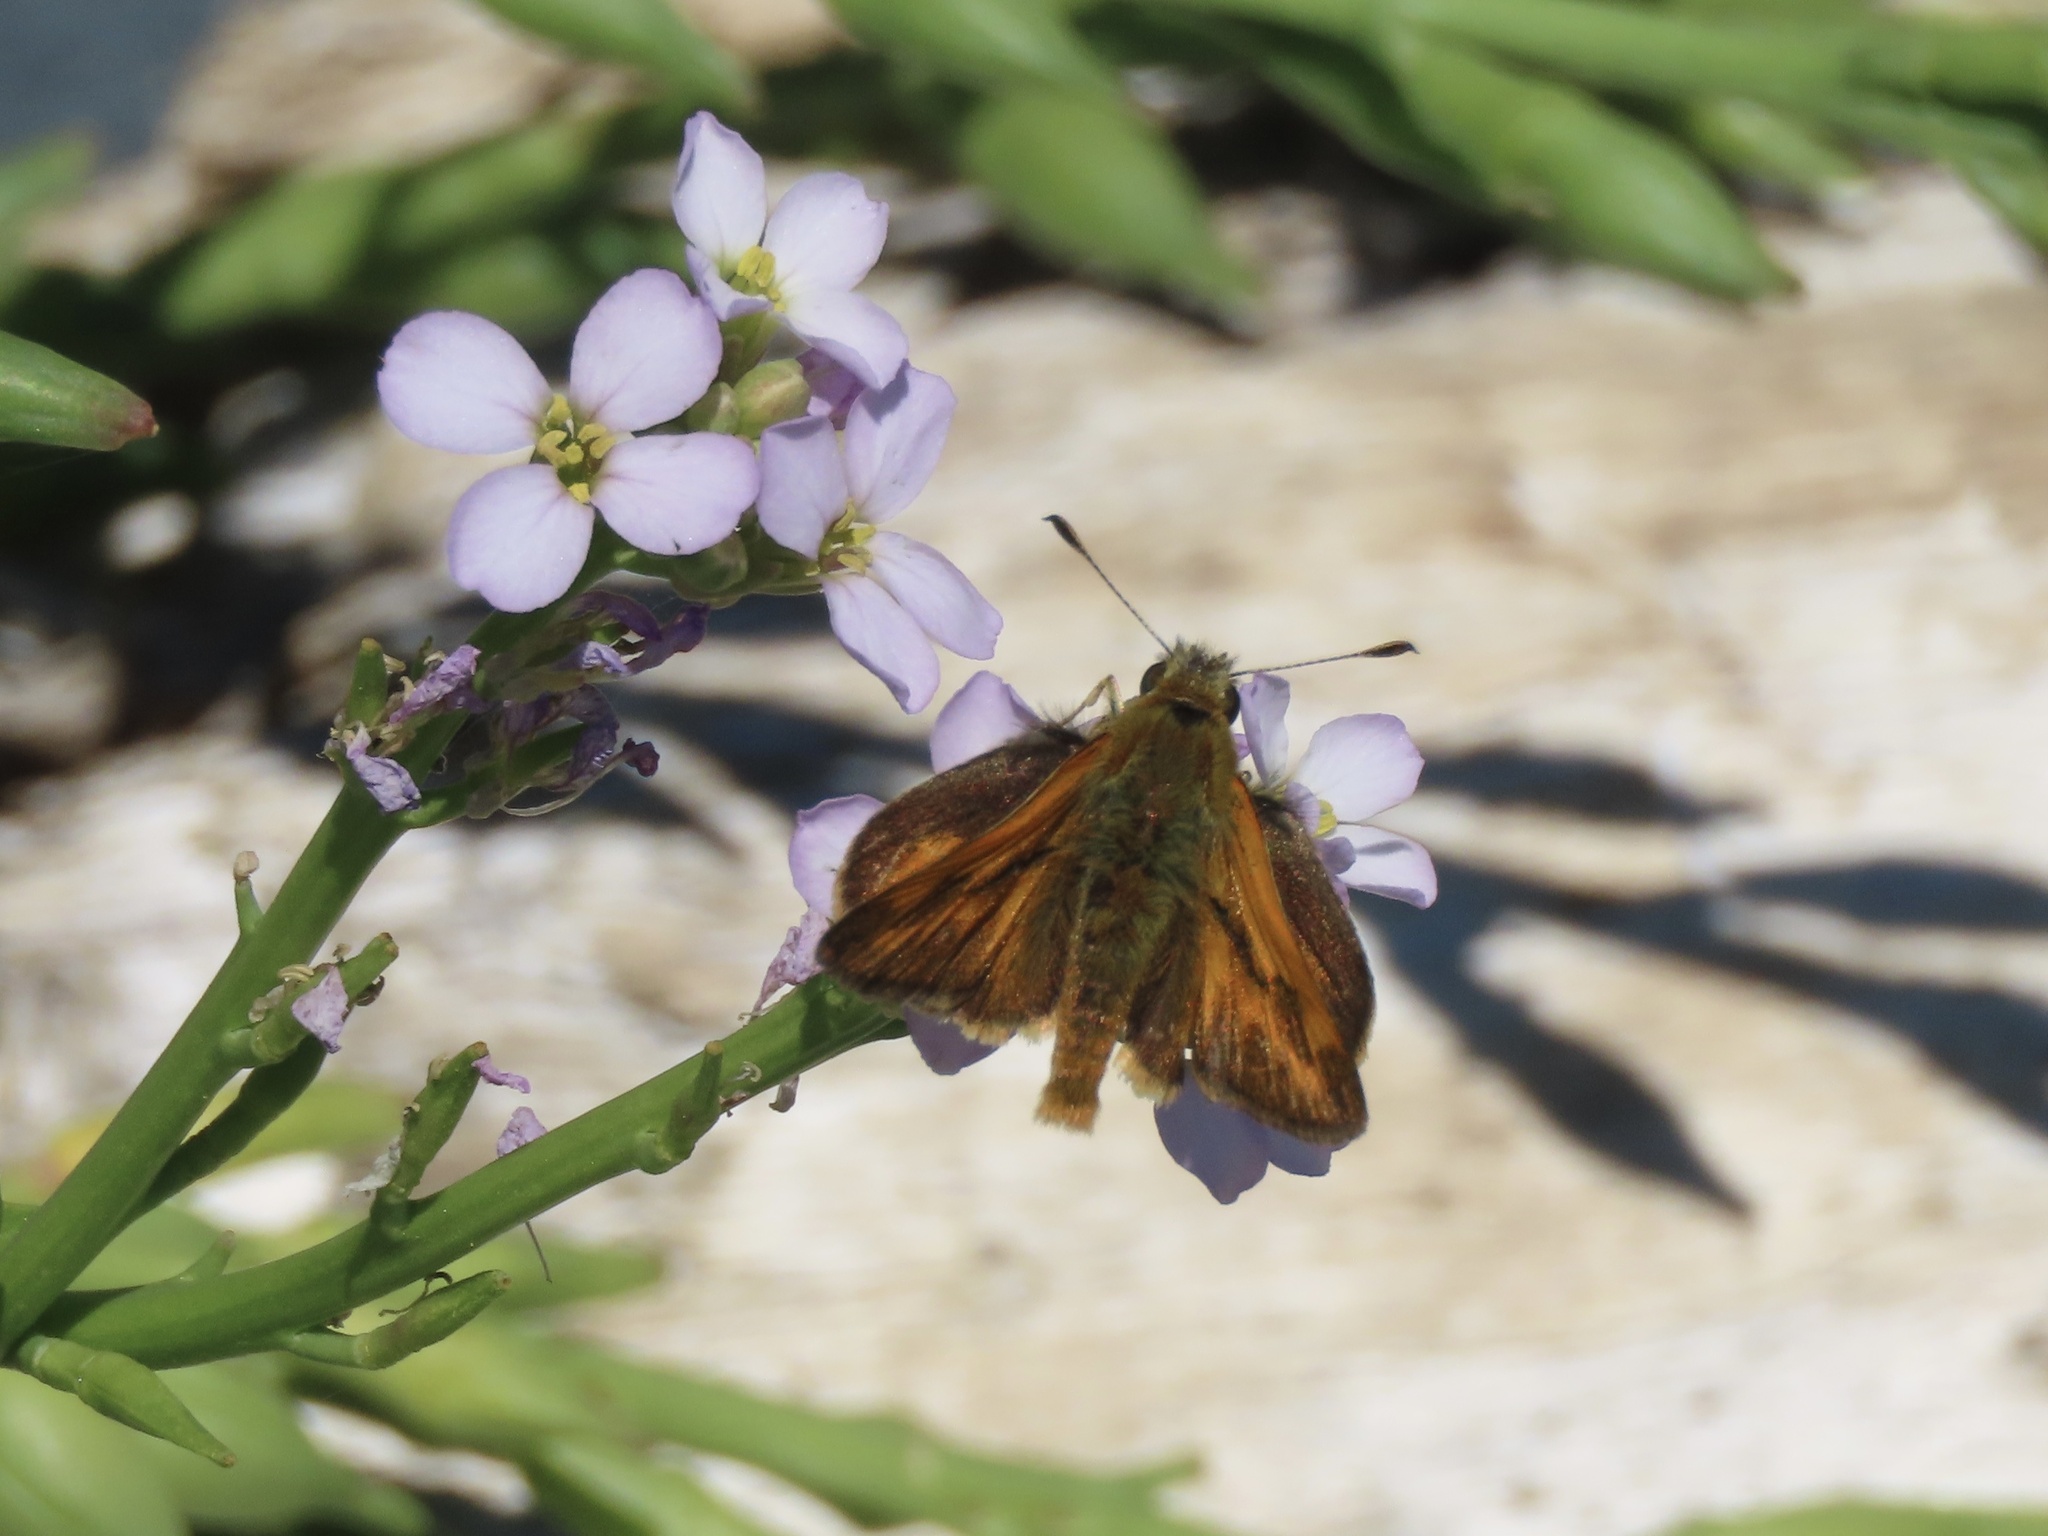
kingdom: Animalia
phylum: Arthropoda
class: Insecta
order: Lepidoptera
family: Hesperiidae
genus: Ochlodes
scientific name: Ochlodes sylvanoides
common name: Woodland skipper
